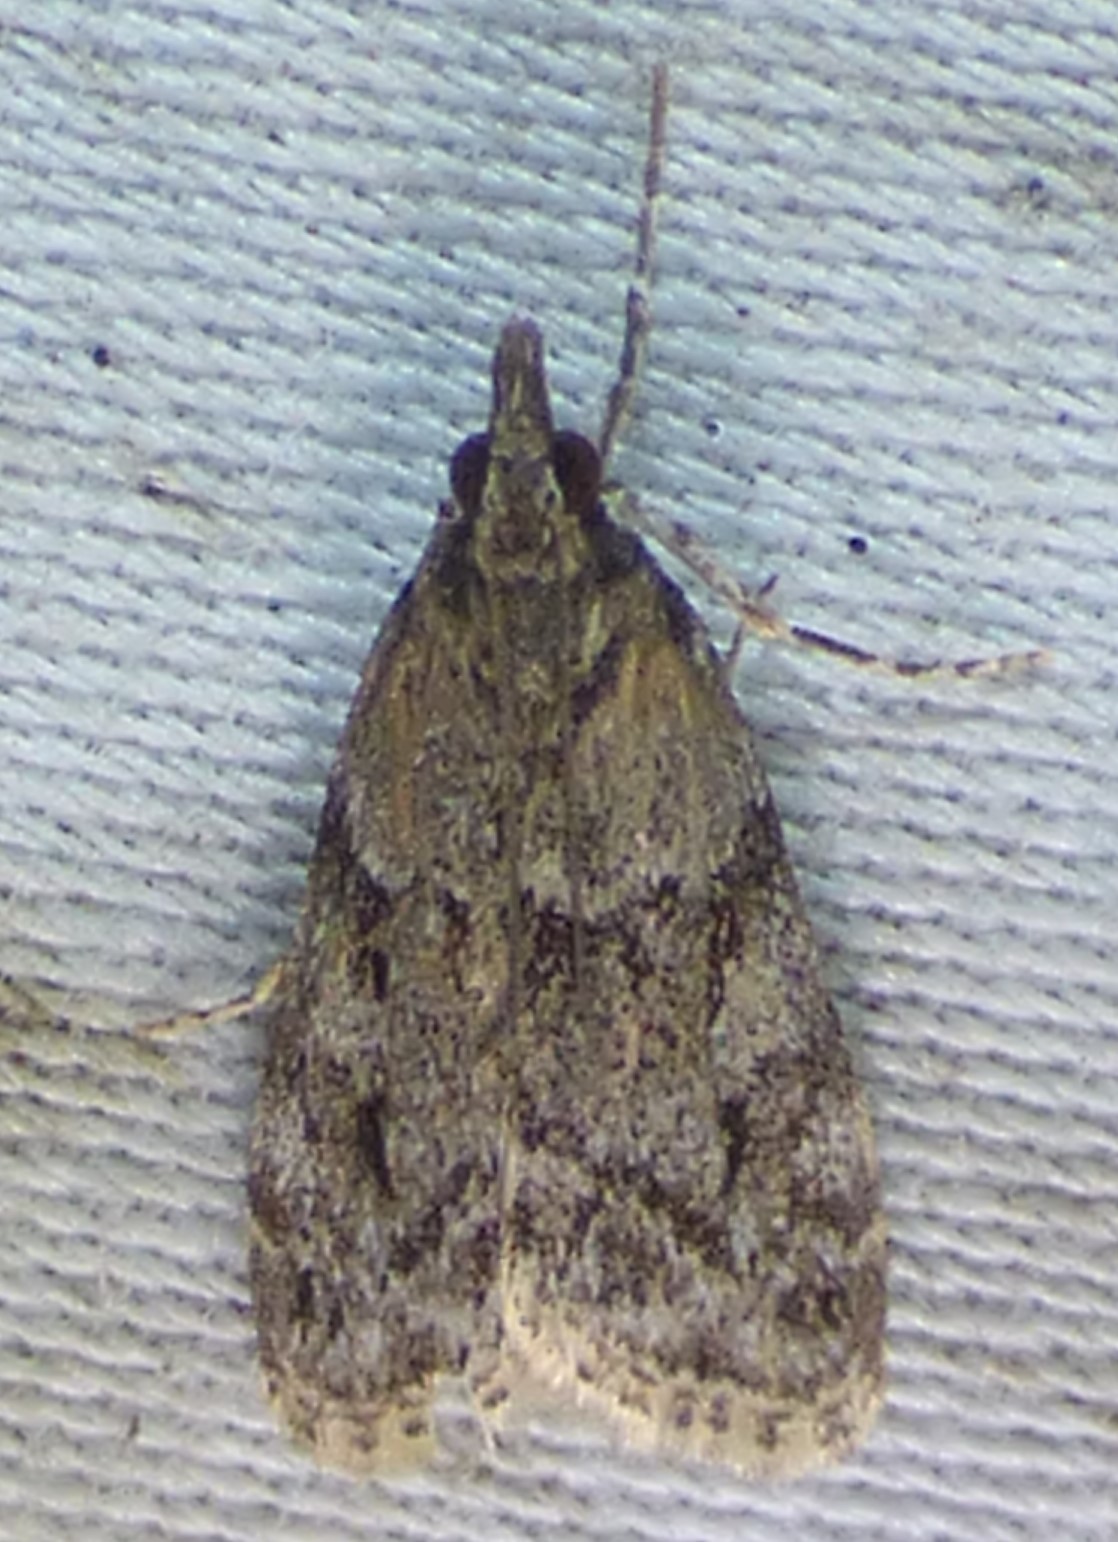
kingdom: Animalia
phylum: Arthropoda
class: Insecta
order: Lepidoptera
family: Crambidae
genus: Eudonia
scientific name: Eudonia heterosalis
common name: Mcdunnough's eudonia
